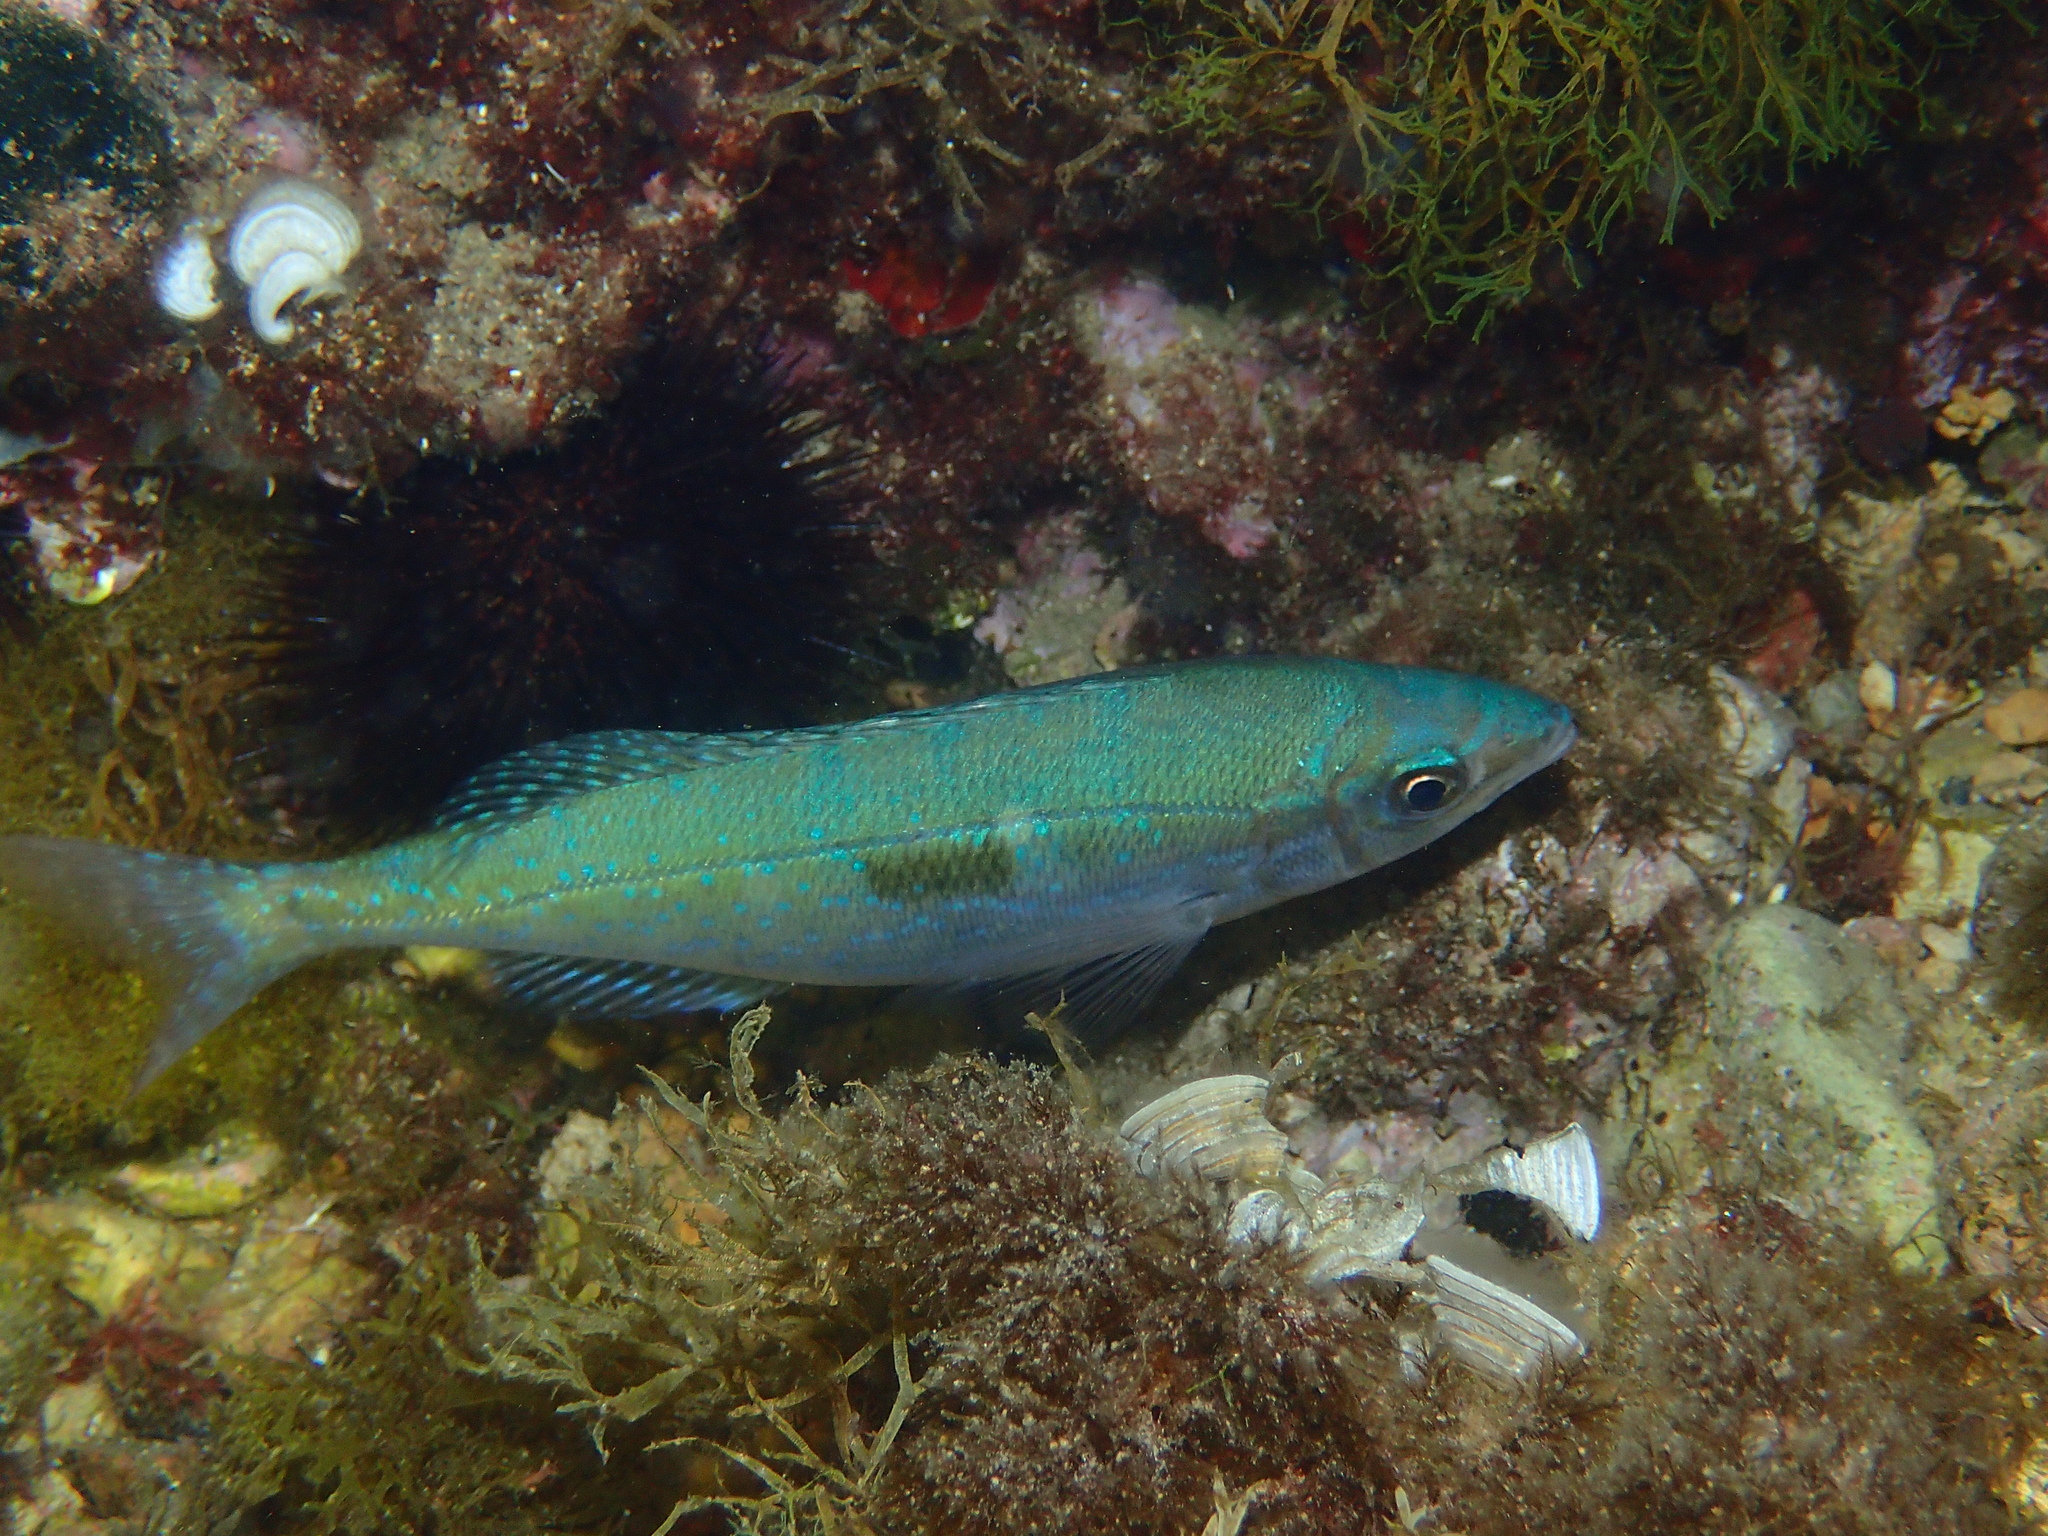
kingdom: Animalia
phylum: Chordata
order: Perciformes
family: Sparidae
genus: Spicara
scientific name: Spicara maena
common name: Blotched picarel
